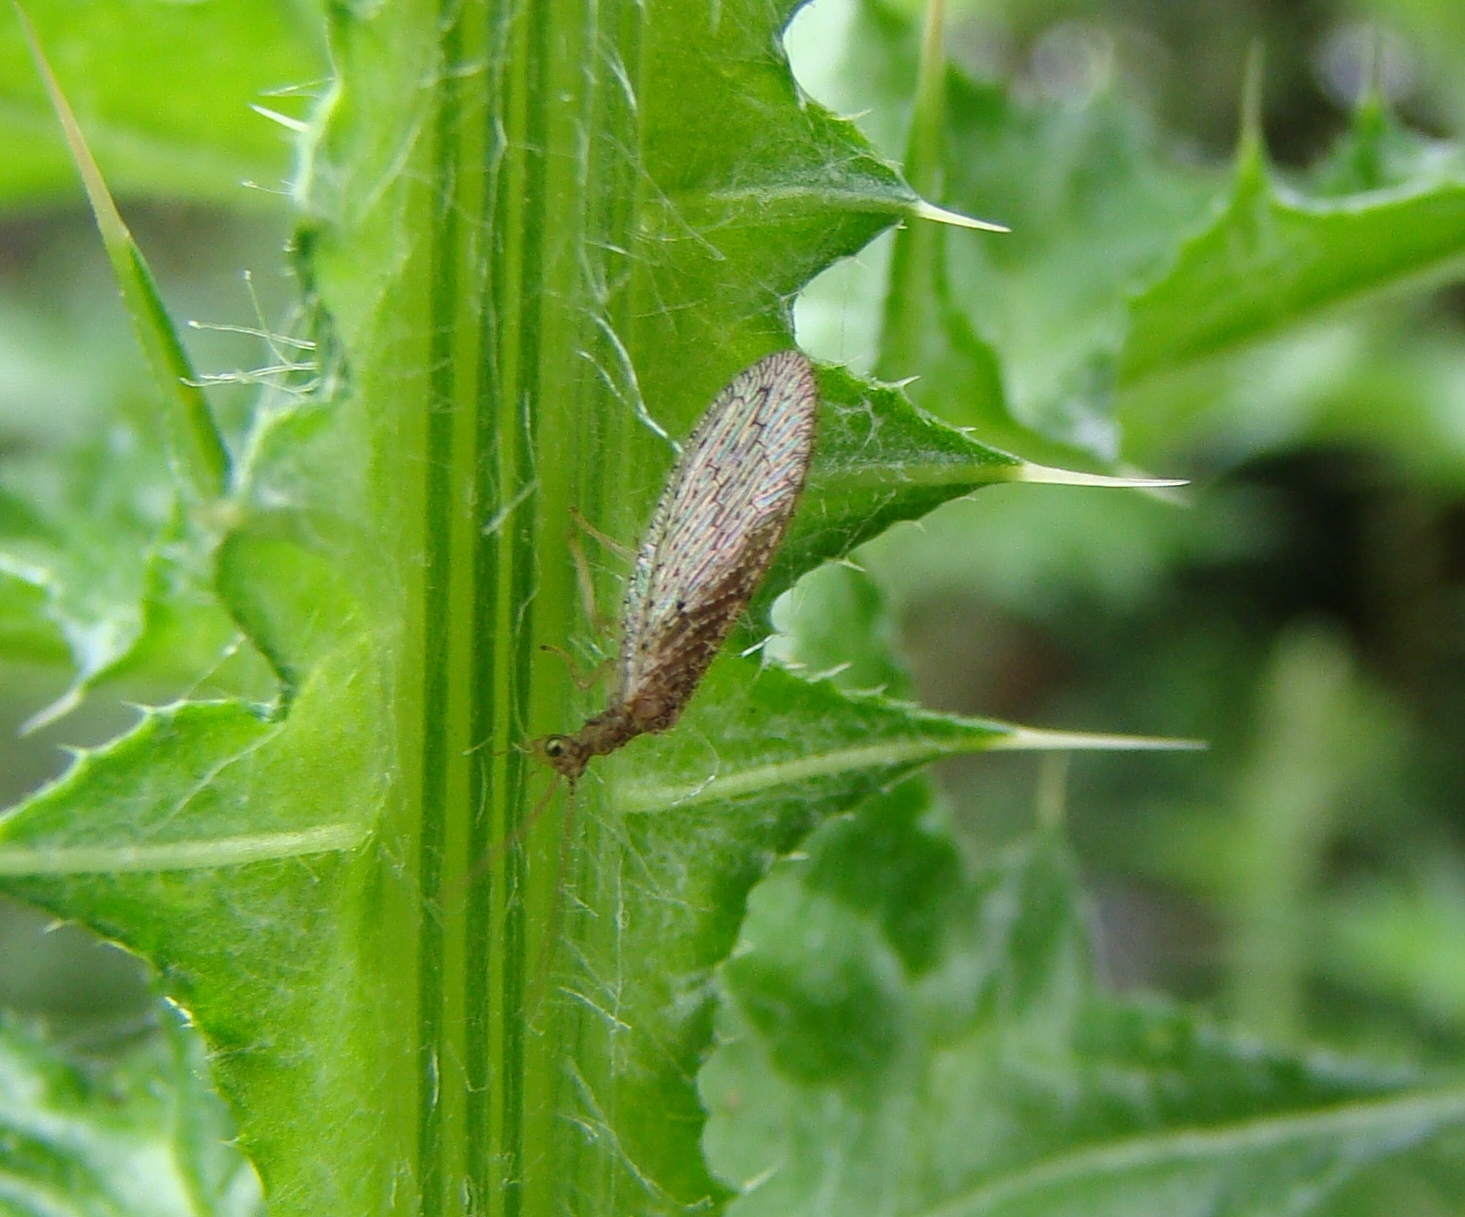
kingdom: Animalia
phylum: Arthropoda
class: Insecta
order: Neuroptera
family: Hemerobiidae
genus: Micromus
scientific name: Micromus tasmaniae
